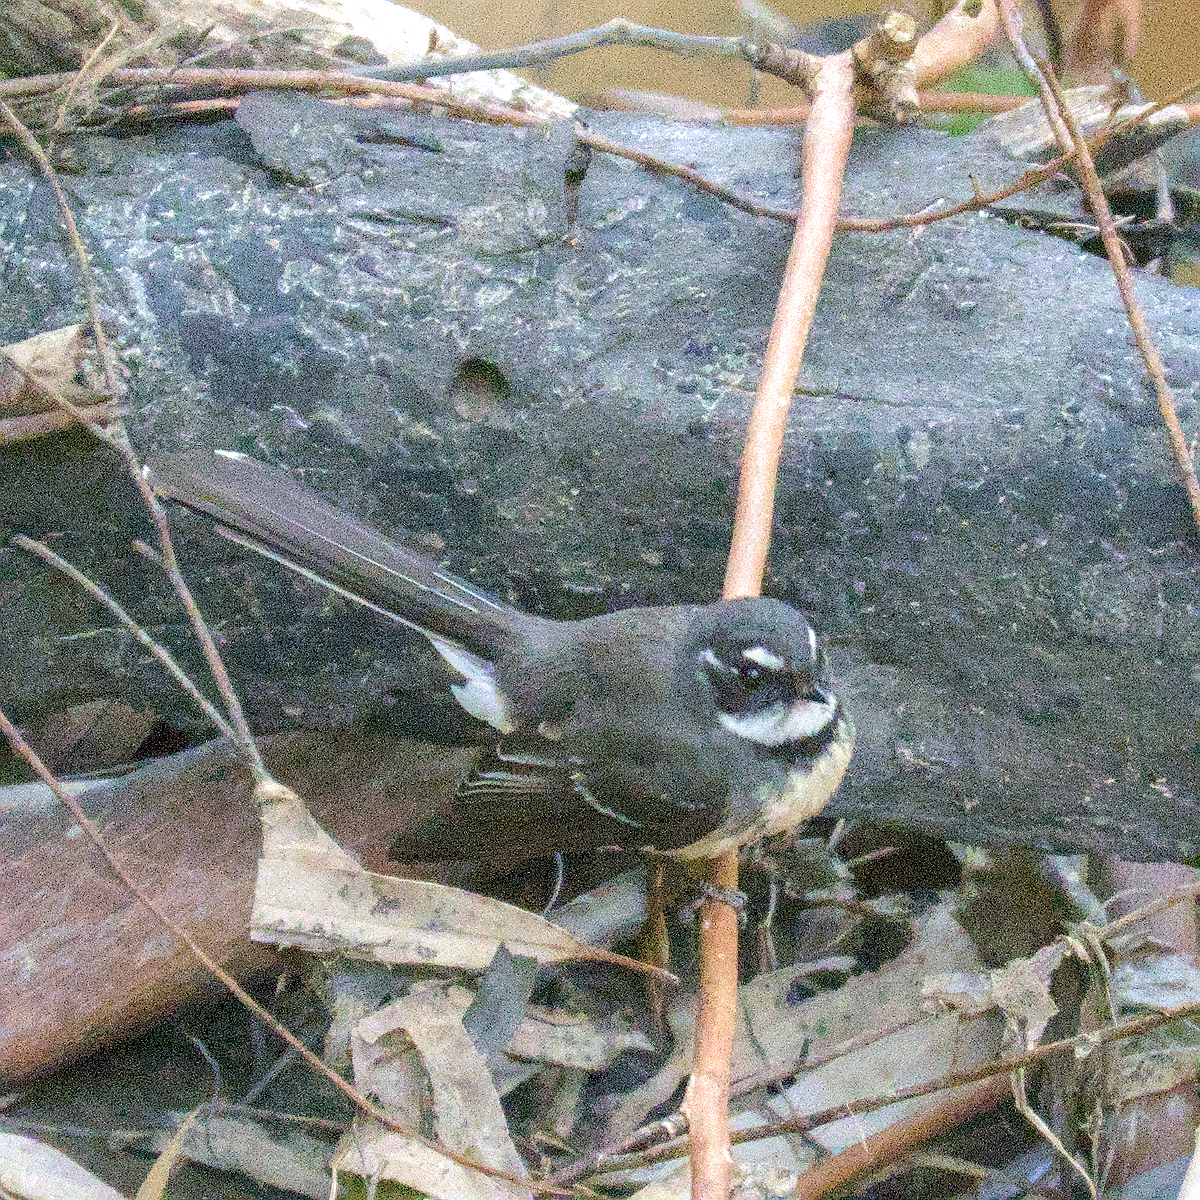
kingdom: Animalia
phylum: Chordata
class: Aves
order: Passeriformes
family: Rhipiduridae
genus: Rhipidura
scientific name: Rhipidura albiscapa
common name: Grey fantail
